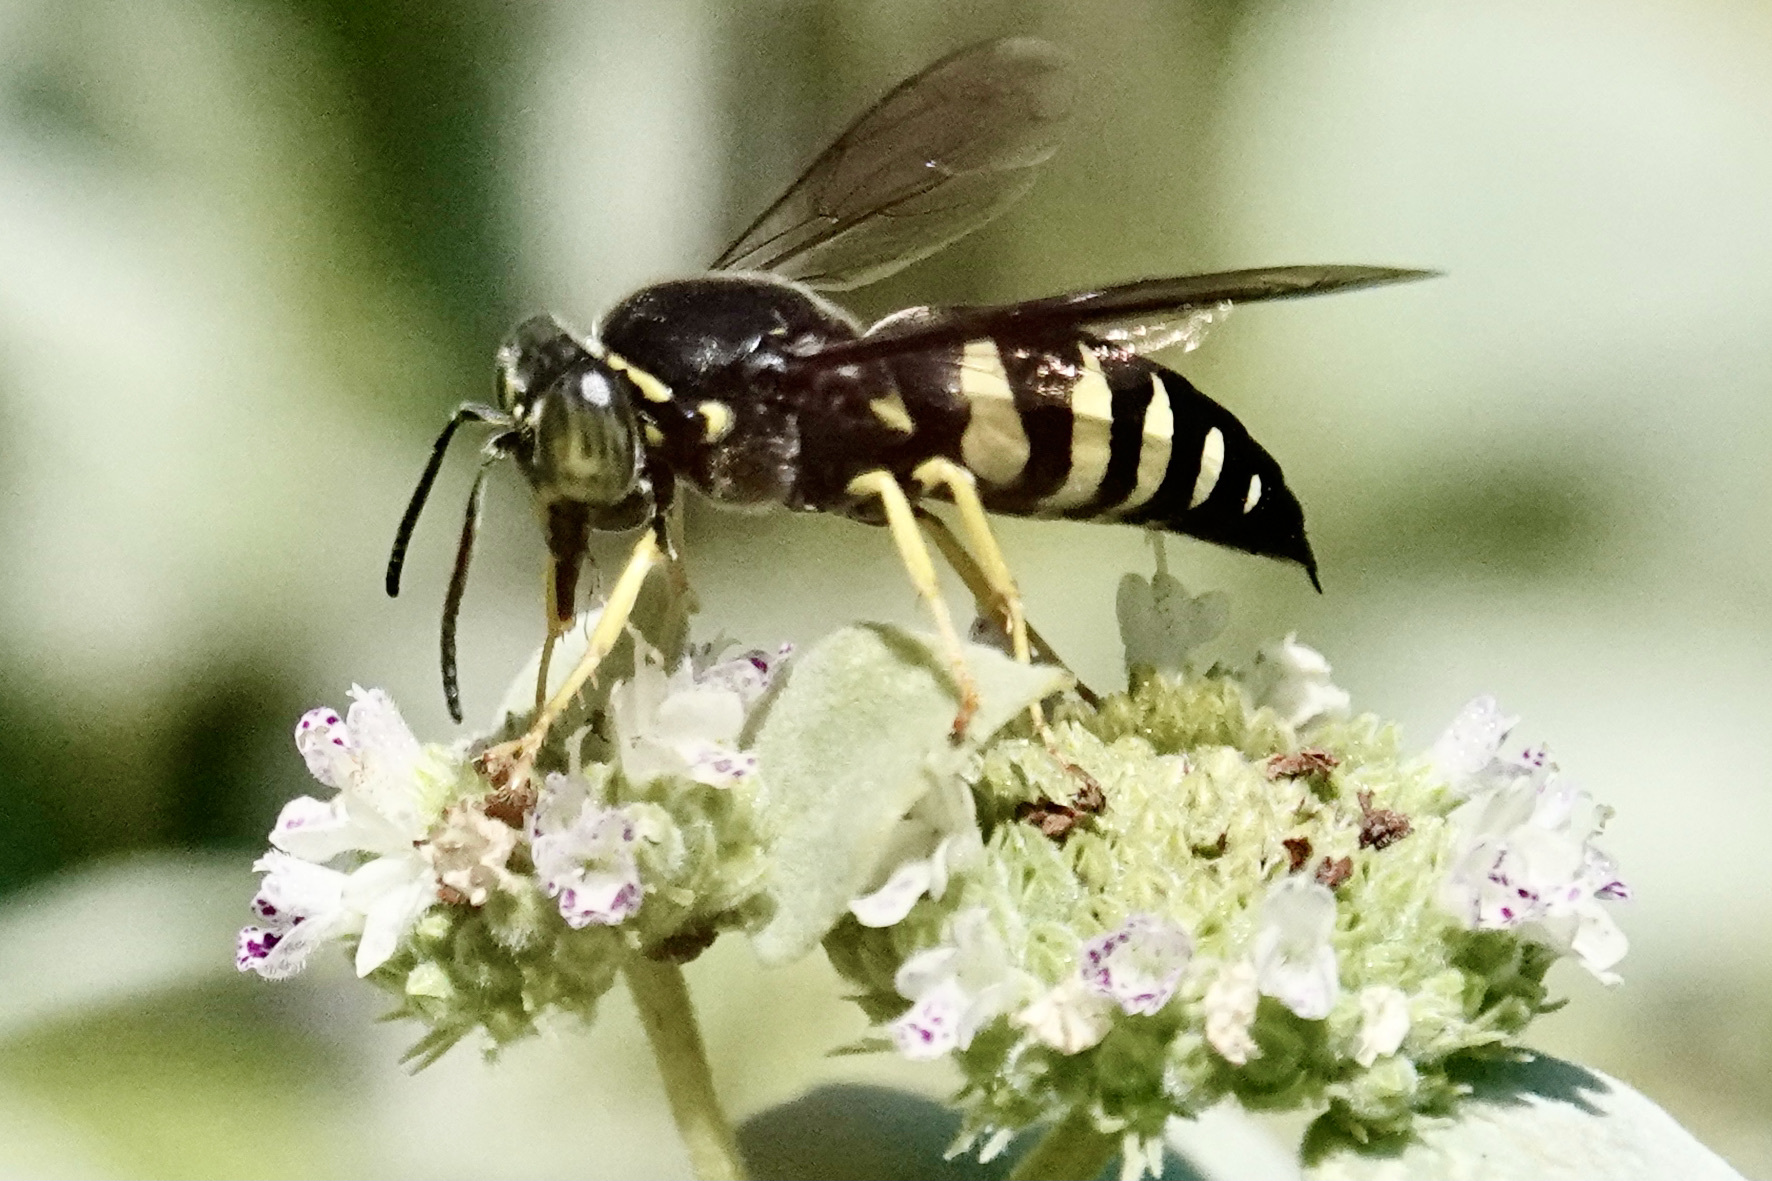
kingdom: Animalia
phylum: Arthropoda
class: Insecta
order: Hymenoptera
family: Crabronidae
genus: Bicyrtes
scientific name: Bicyrtes quadrifasciatus
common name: Four-banded stink bug hunter wasp
